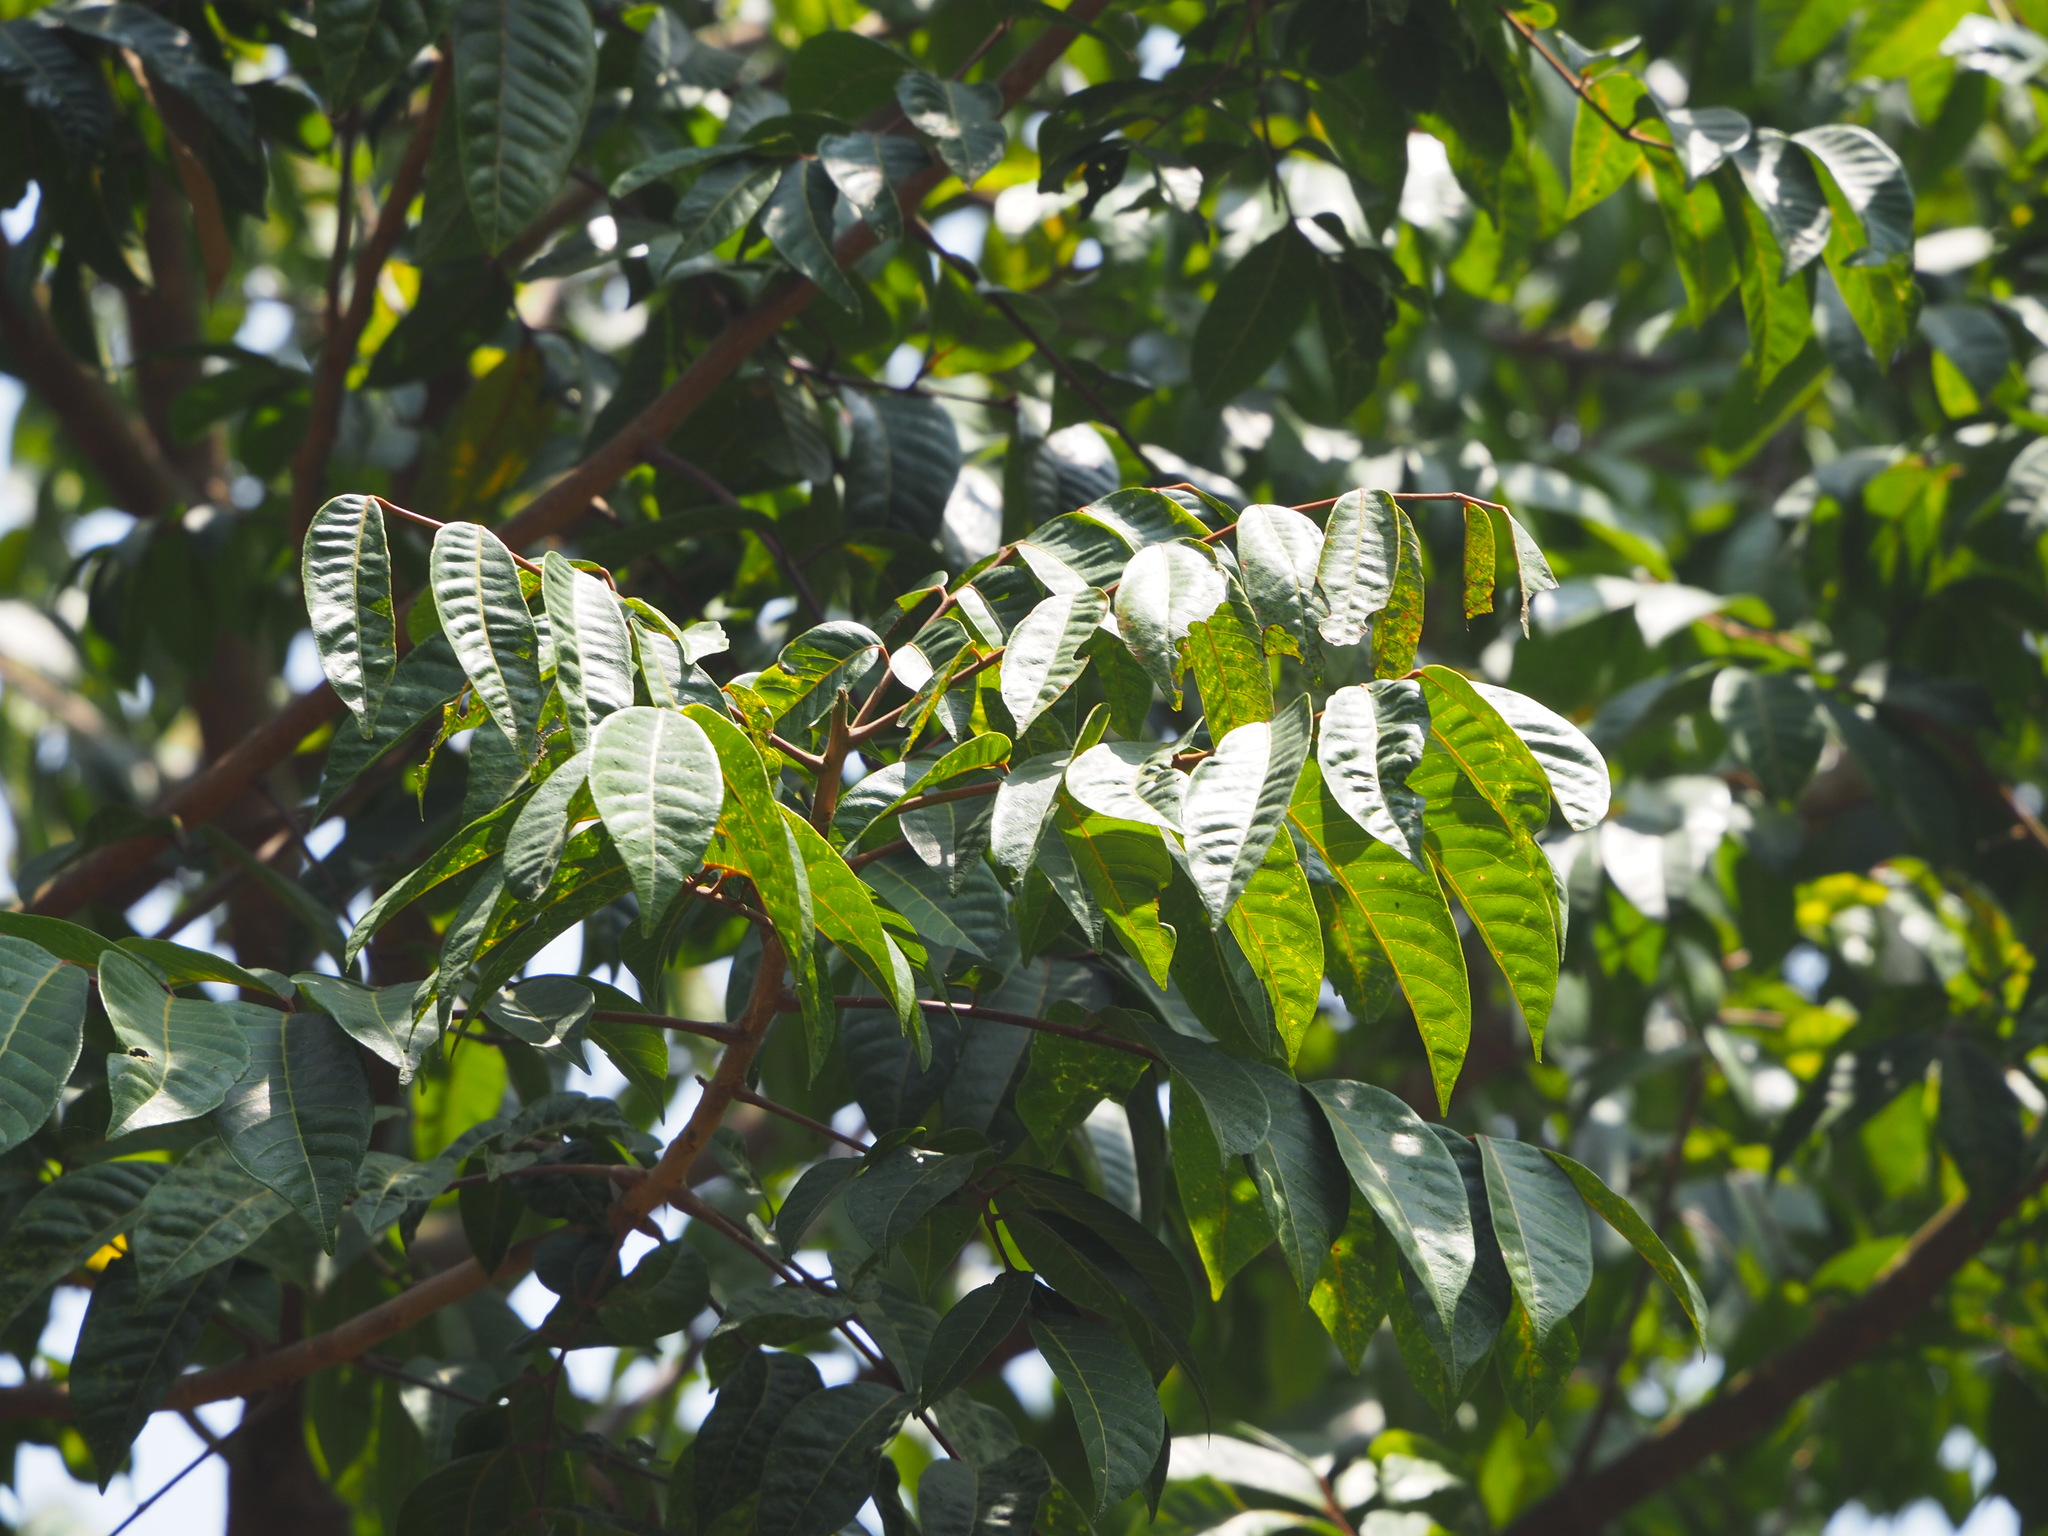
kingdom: Plantae
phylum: Tracheophyta
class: Magnoliopsida
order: Sapindales
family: Burseraceae
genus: Canarium
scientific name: Canarium subulatum
